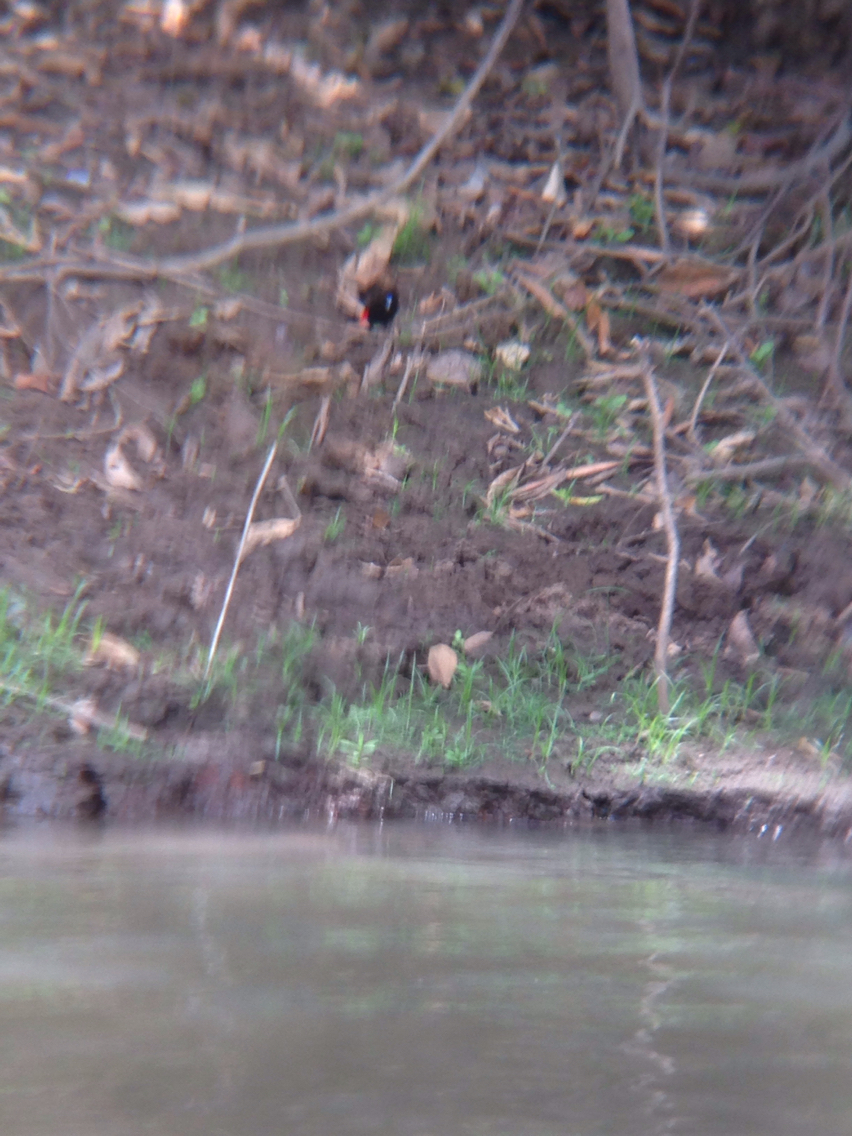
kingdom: Animalia
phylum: Chordata
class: Aves
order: Passeriformes
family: Thraupidae
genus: Ramphocelus
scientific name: Ramphocelus passerinii
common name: Passerini's tanager
